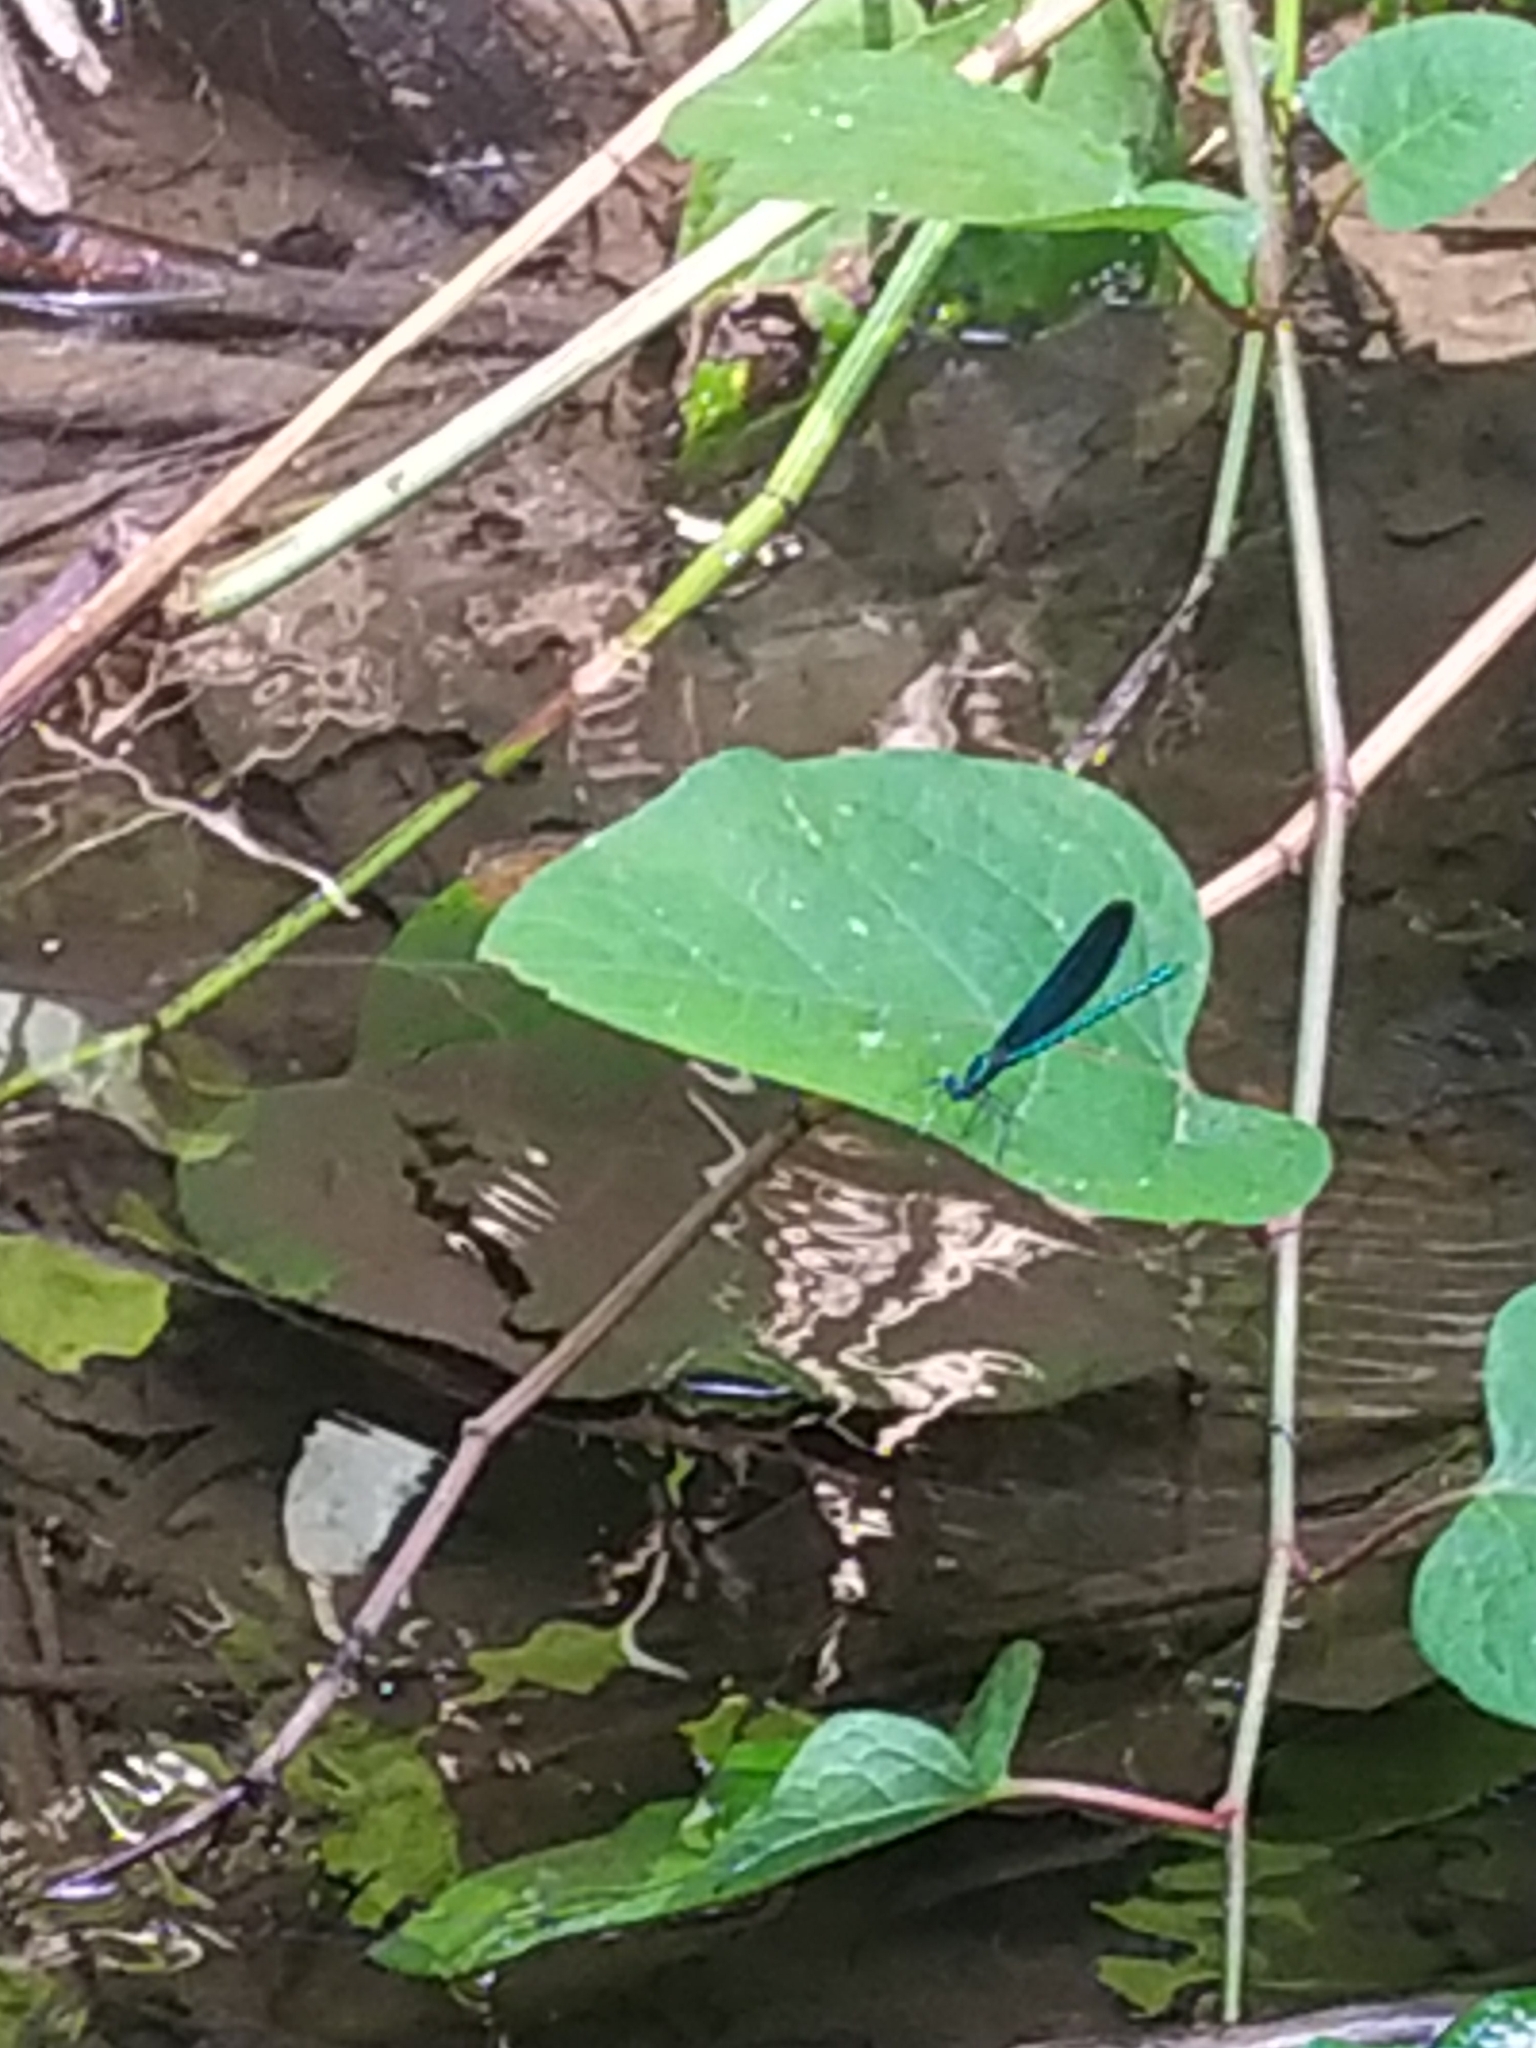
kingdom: Animalia
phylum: Arthropoda
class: Insecta
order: Odonata
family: Calopterygidae
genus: Calopteryx
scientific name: Calopteryx virgo
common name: Beautiful demoiselle
